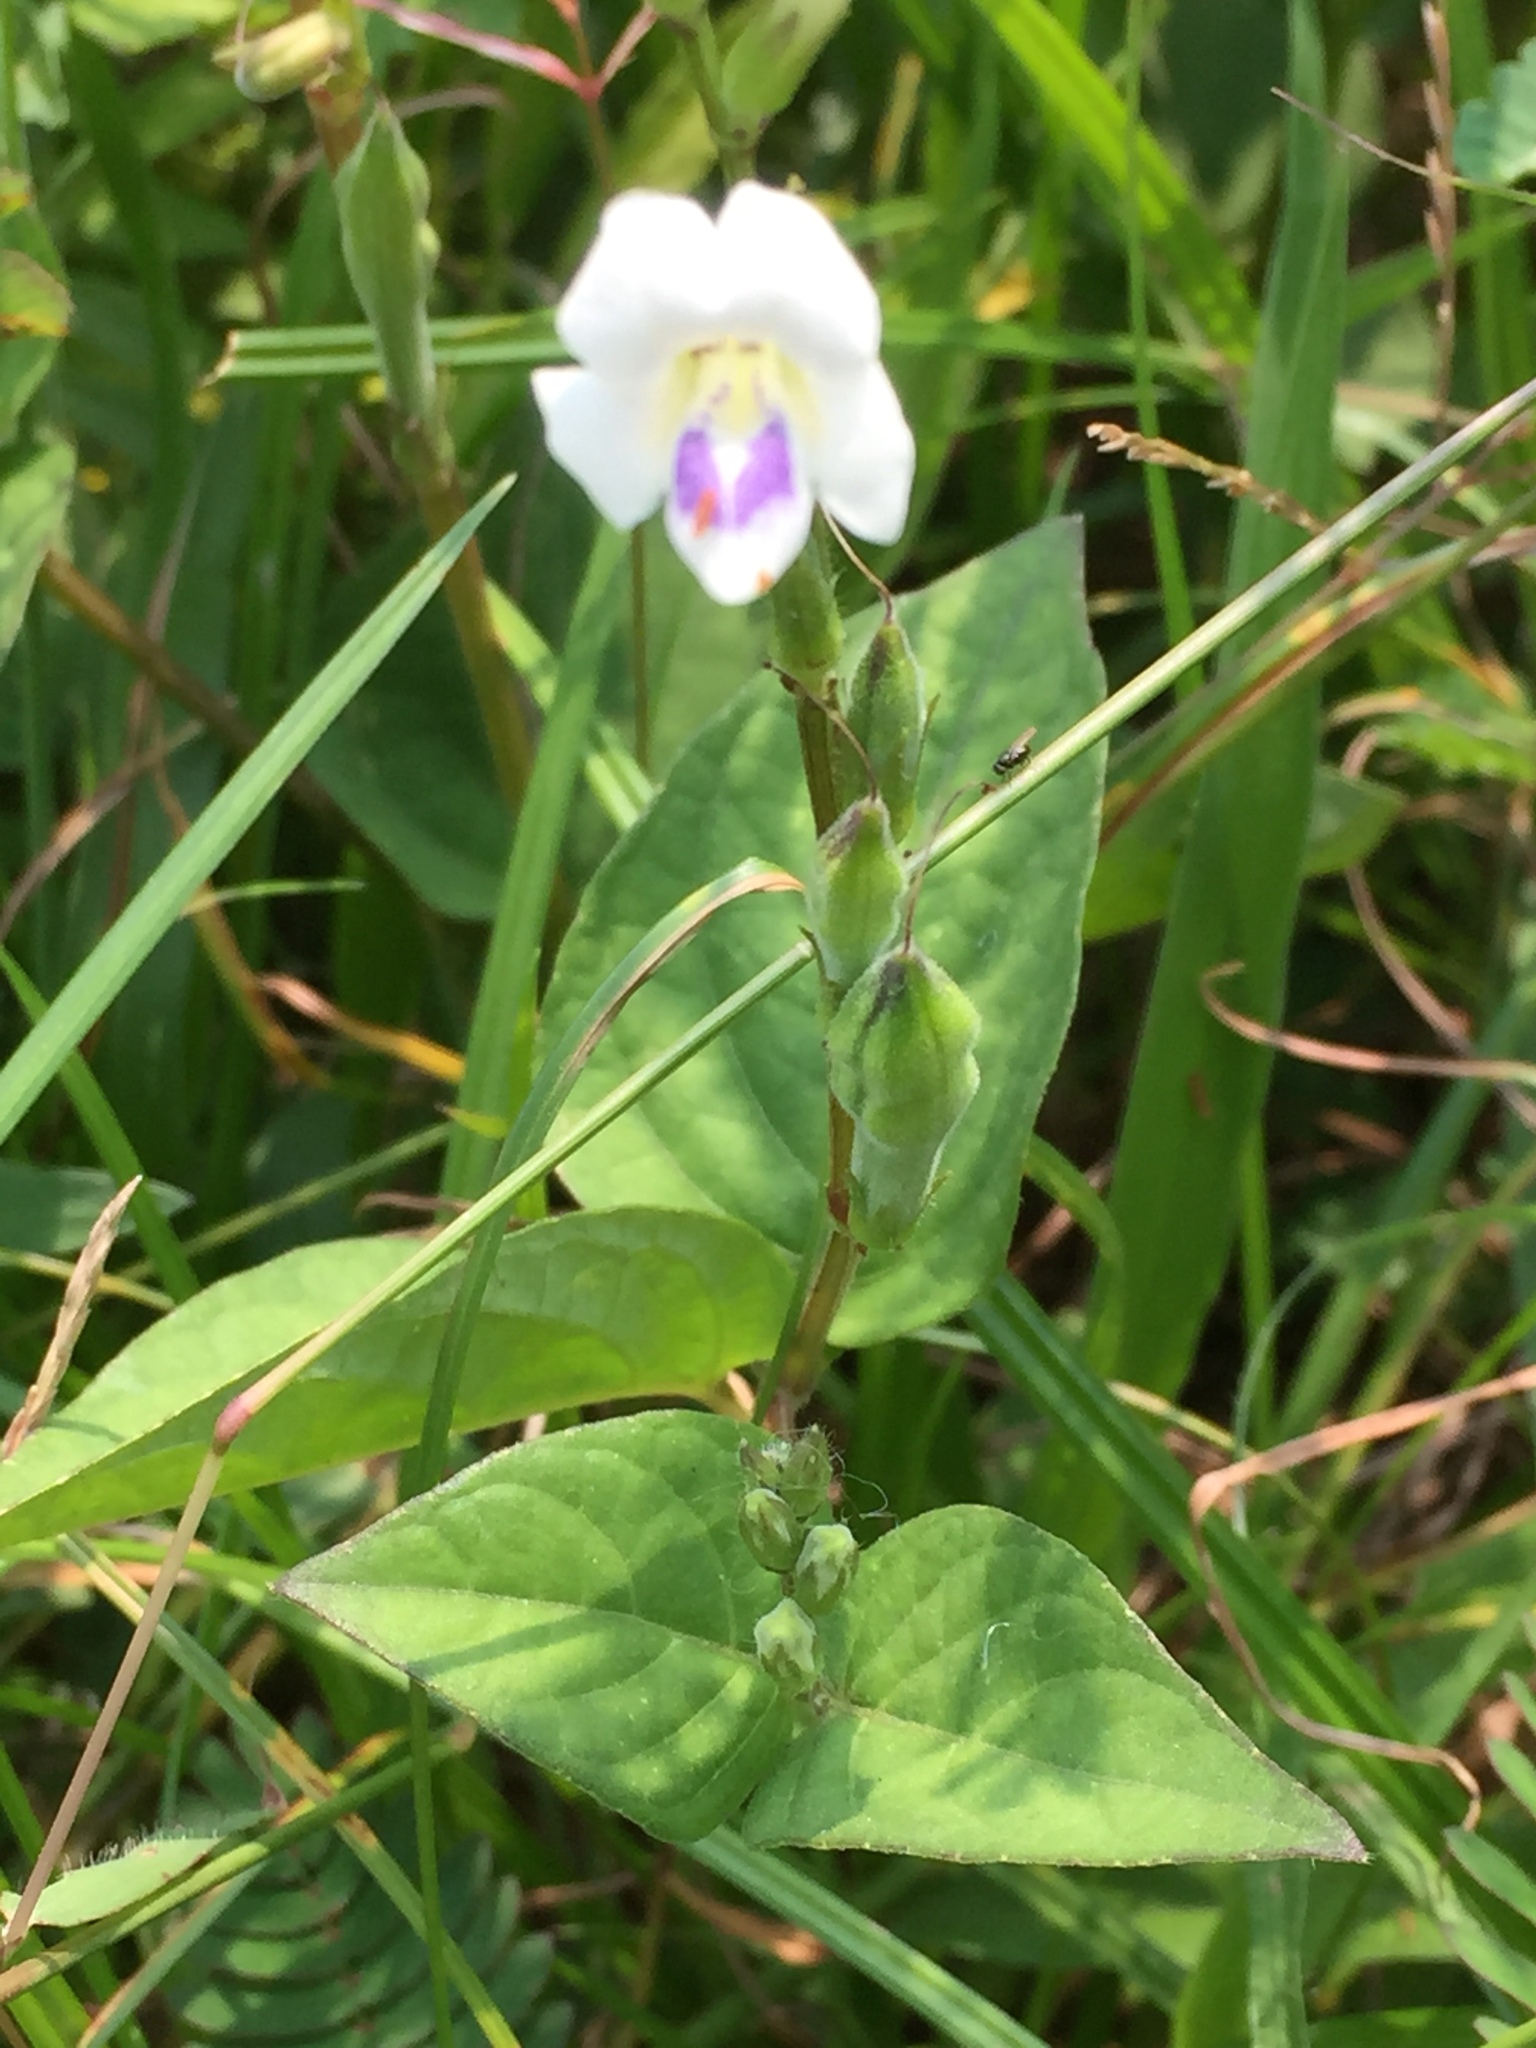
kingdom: Plantae
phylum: Tracheophyta
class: Magnoliopsida
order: Lamiales
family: Acanthaceae
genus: Asystasia
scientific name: Asystasia gangetica
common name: Chinese violet
